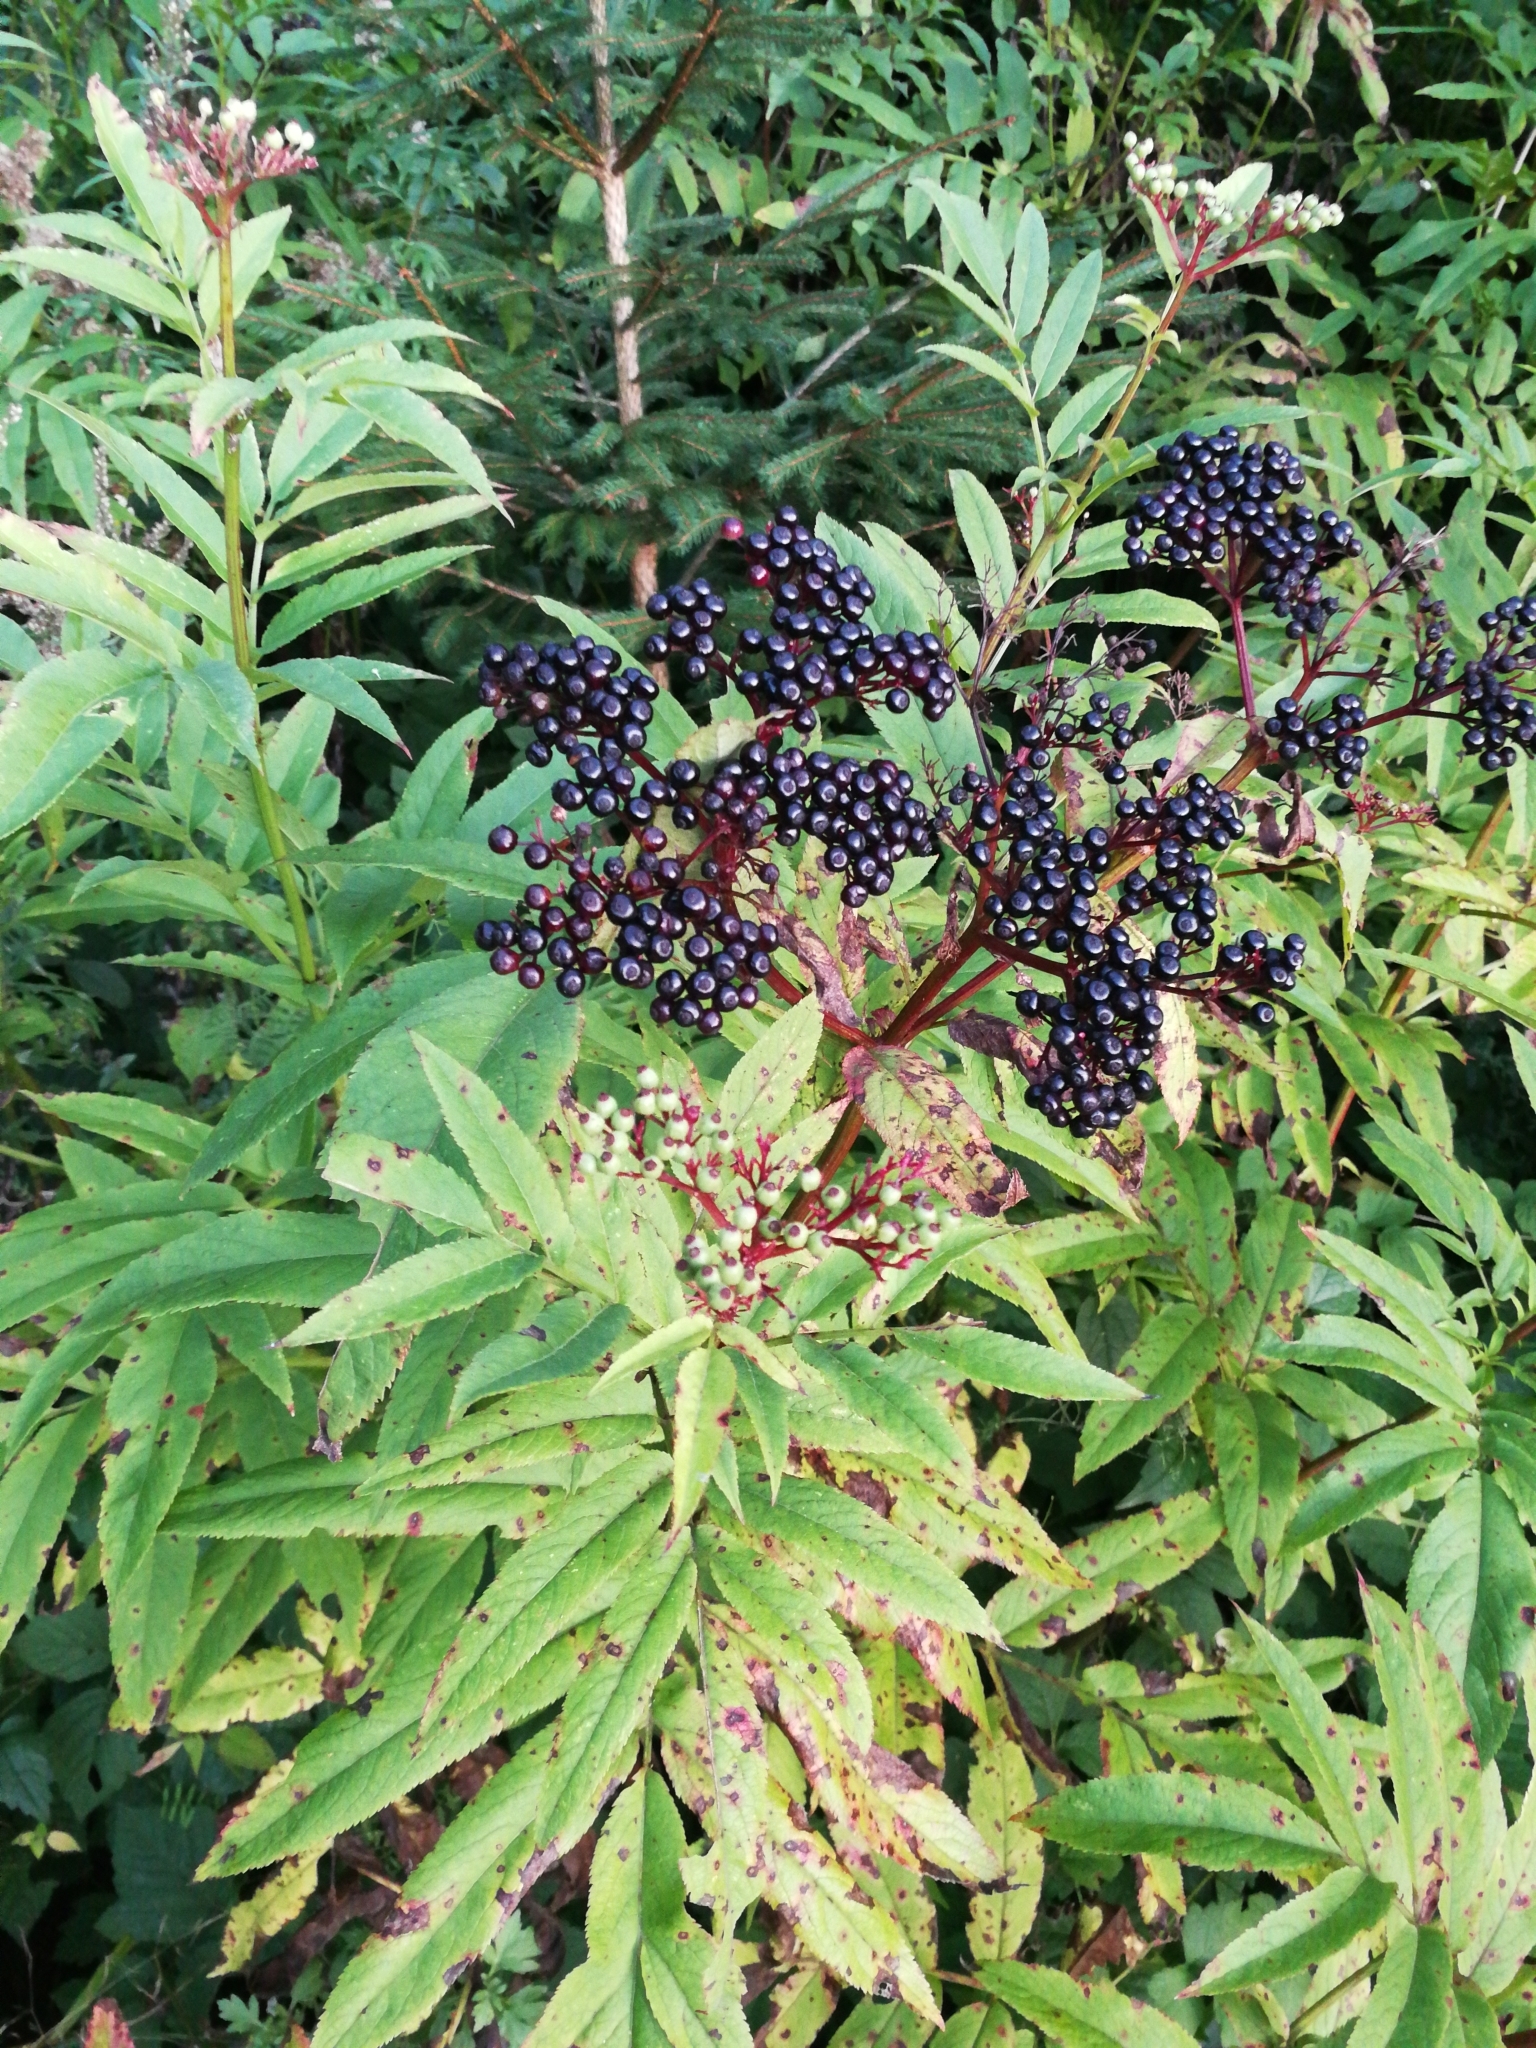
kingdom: Plantae
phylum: Tracheophyta
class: Magnoliopsida
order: Dipsacales
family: Viburnaceae
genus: Sambucus
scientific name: Sambucus ebulus
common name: Dwarf elder
